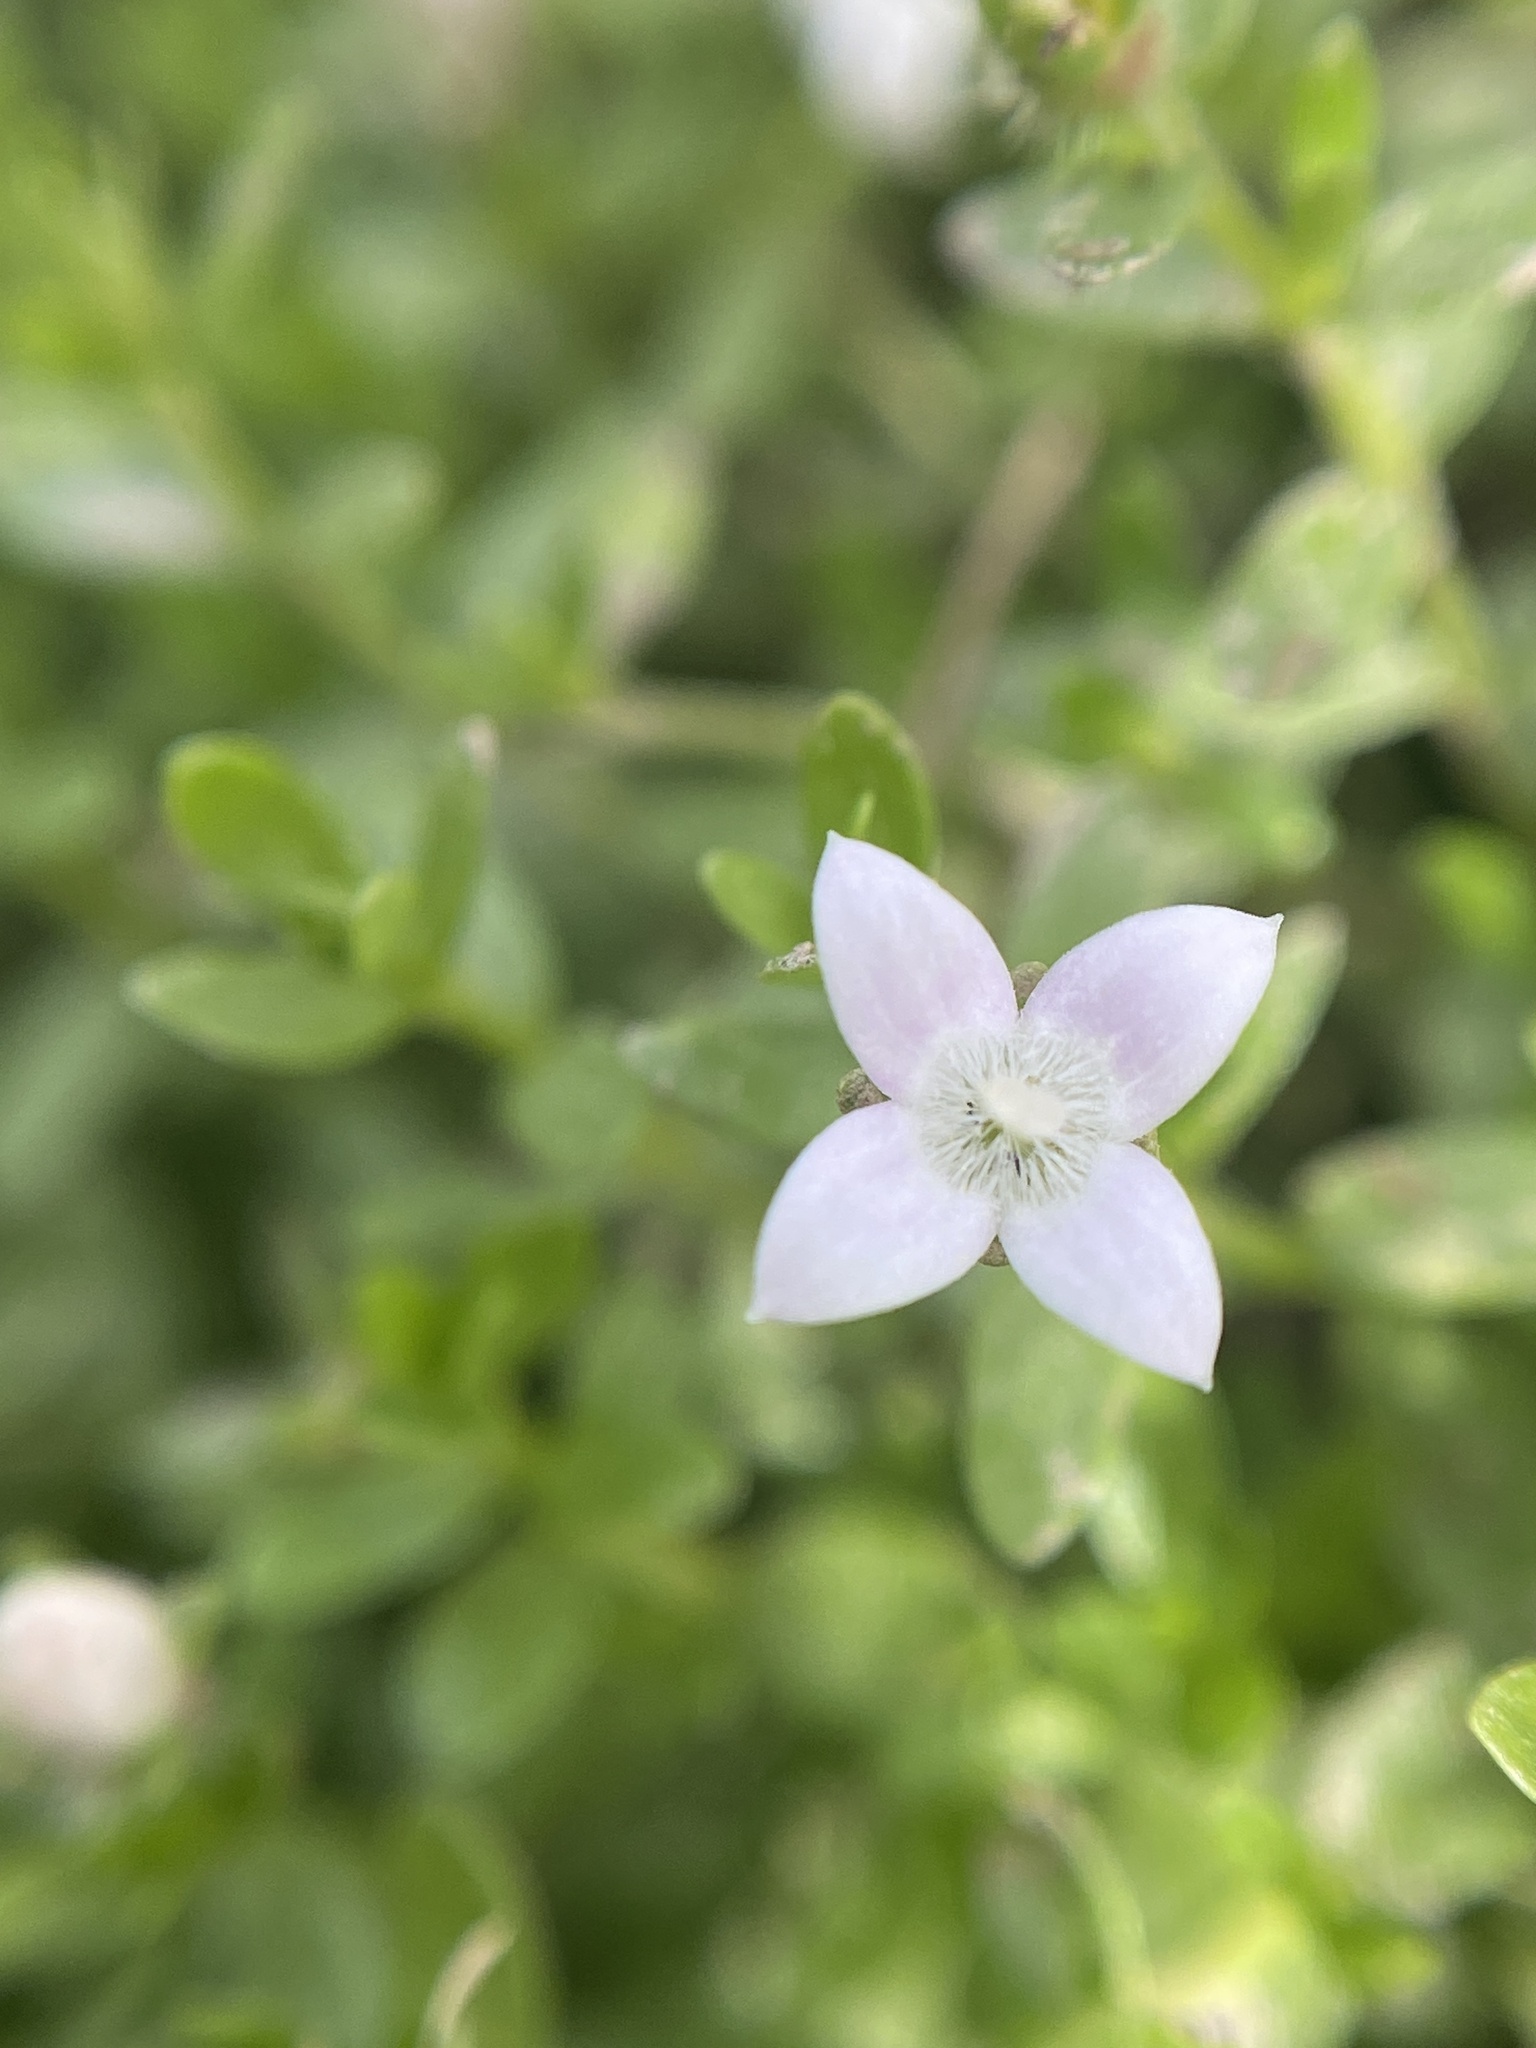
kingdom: Plantae
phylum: Tracheophyta
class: Magnoliopsida
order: Gentianales
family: Rubiaceae
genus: Oldenlandia
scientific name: Oldenlandia salzmannii
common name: Salzmann's mille graines
